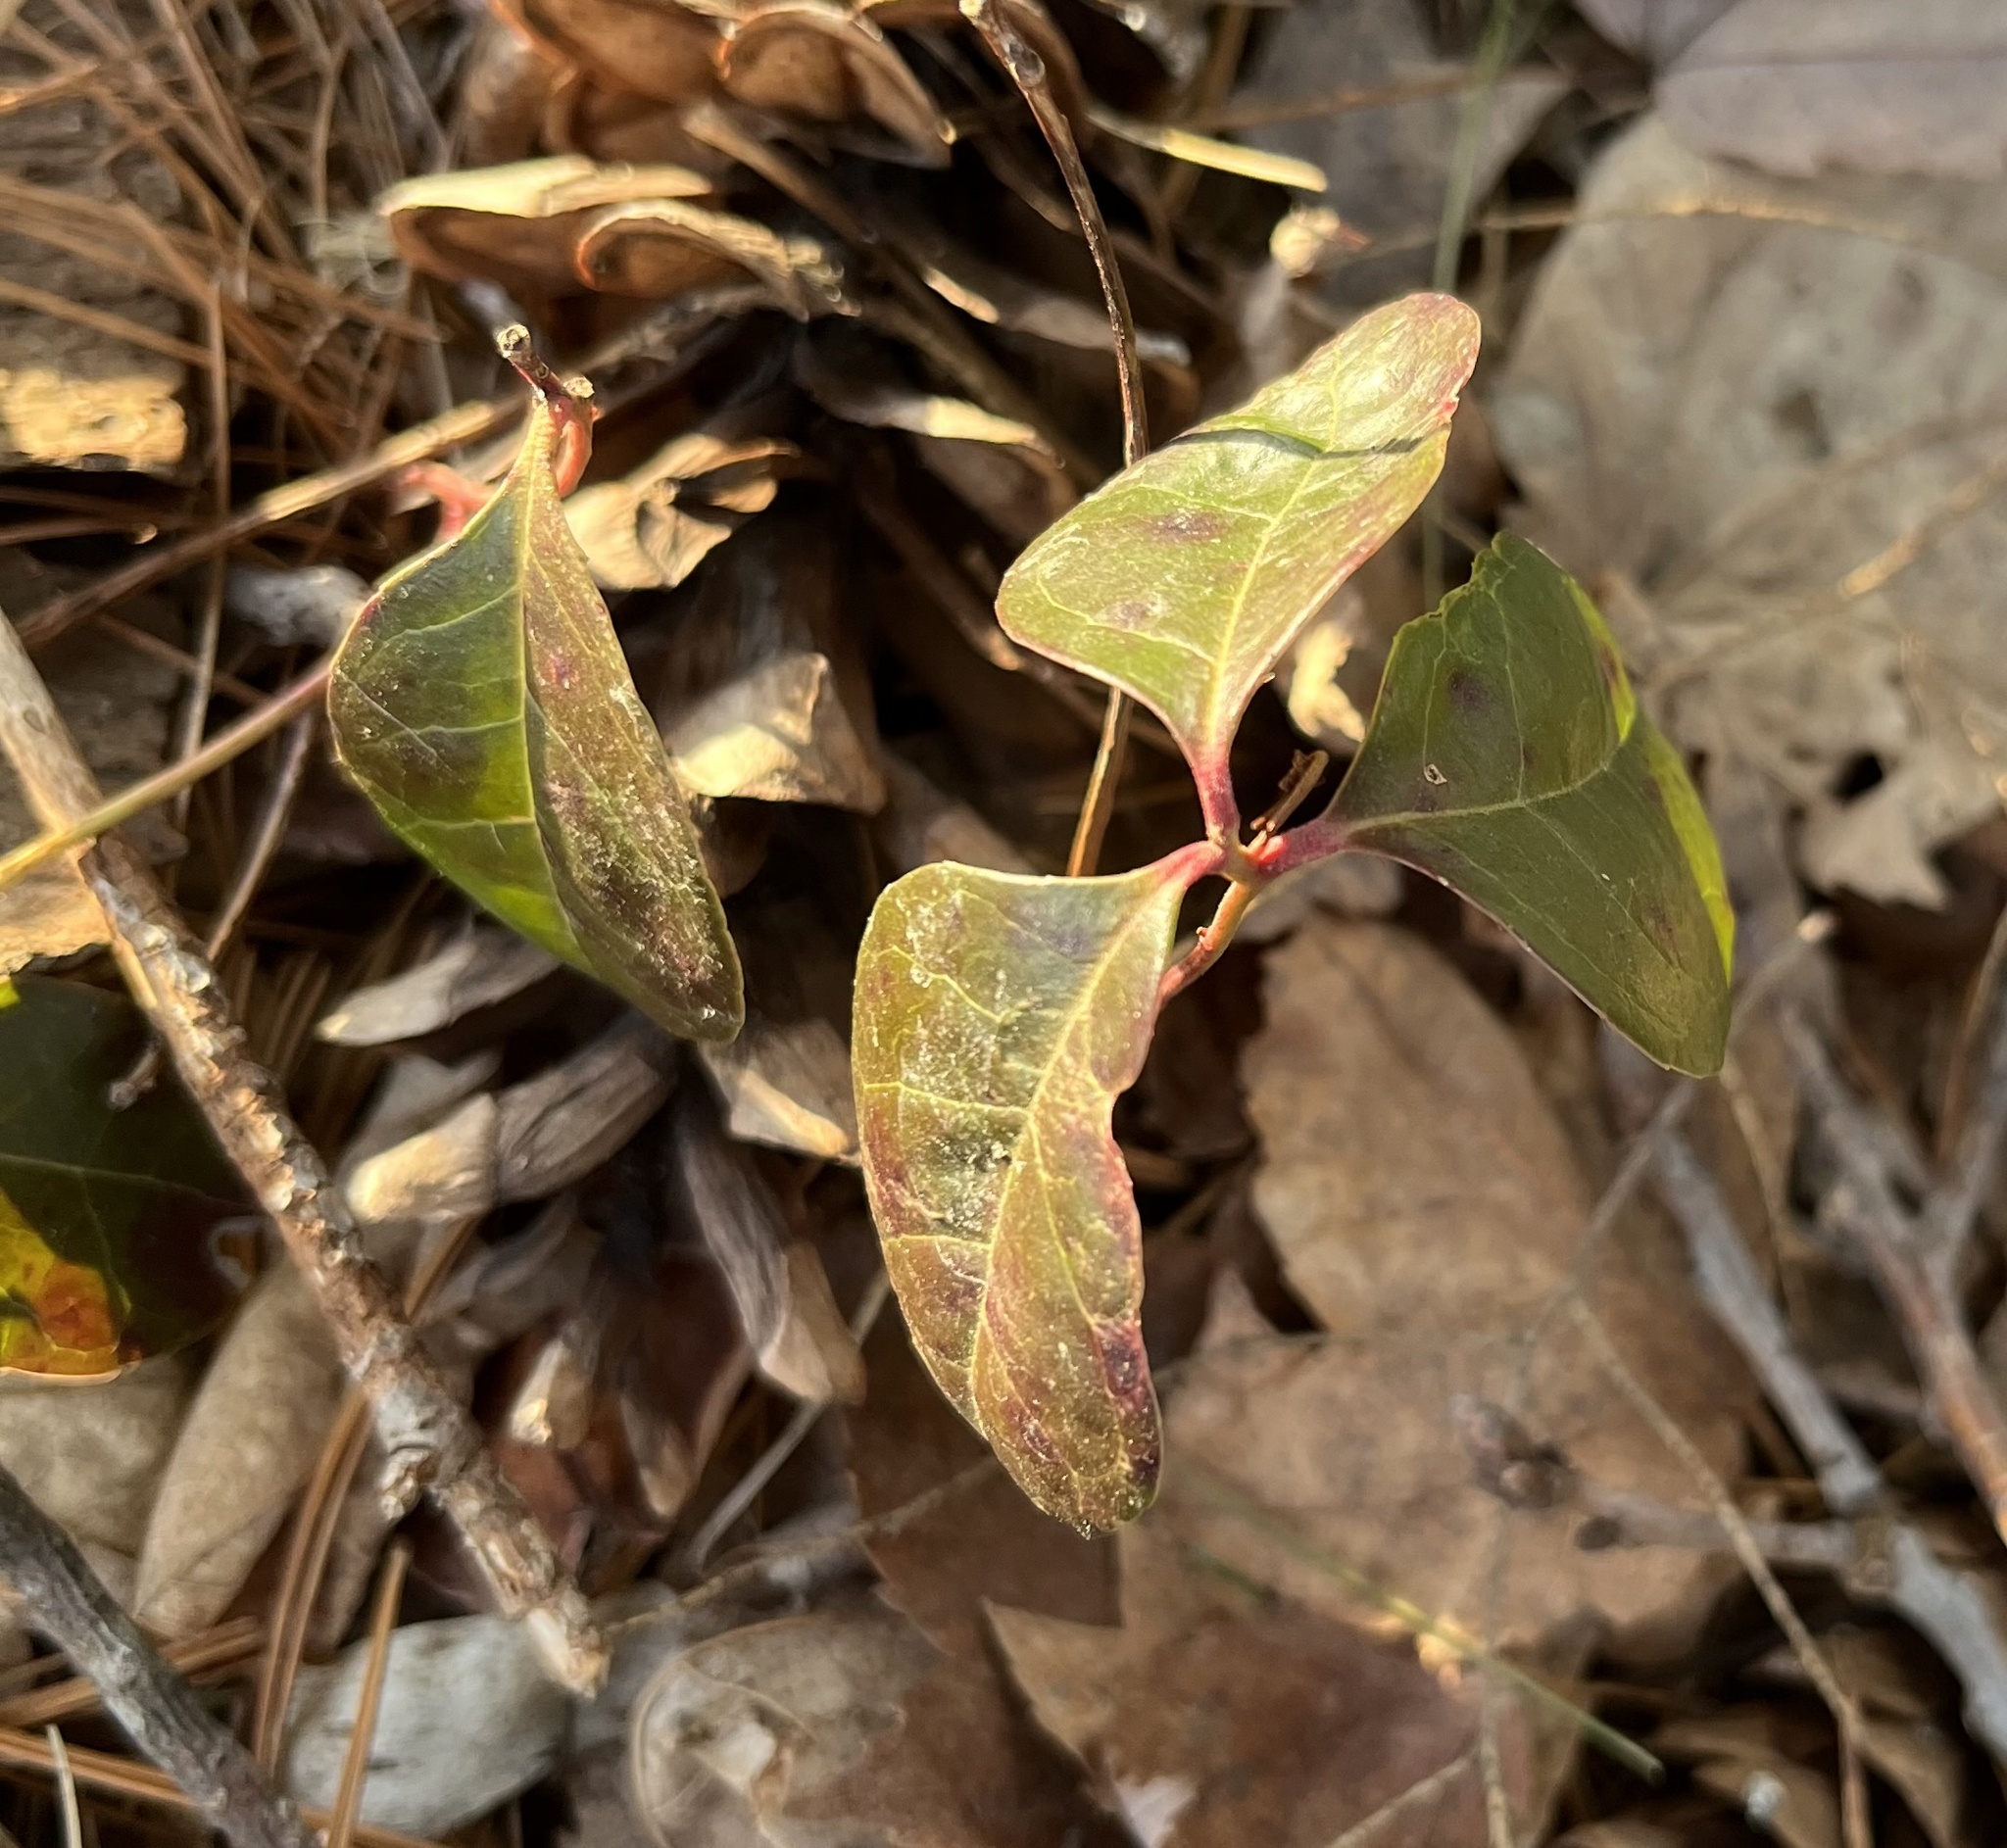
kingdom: Plantae
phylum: Tracheophyta
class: Magnoliopsida
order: Ericales
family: Ericaceae
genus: Gaultheria
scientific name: Gaultheria procumbens
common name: Checkerberry
